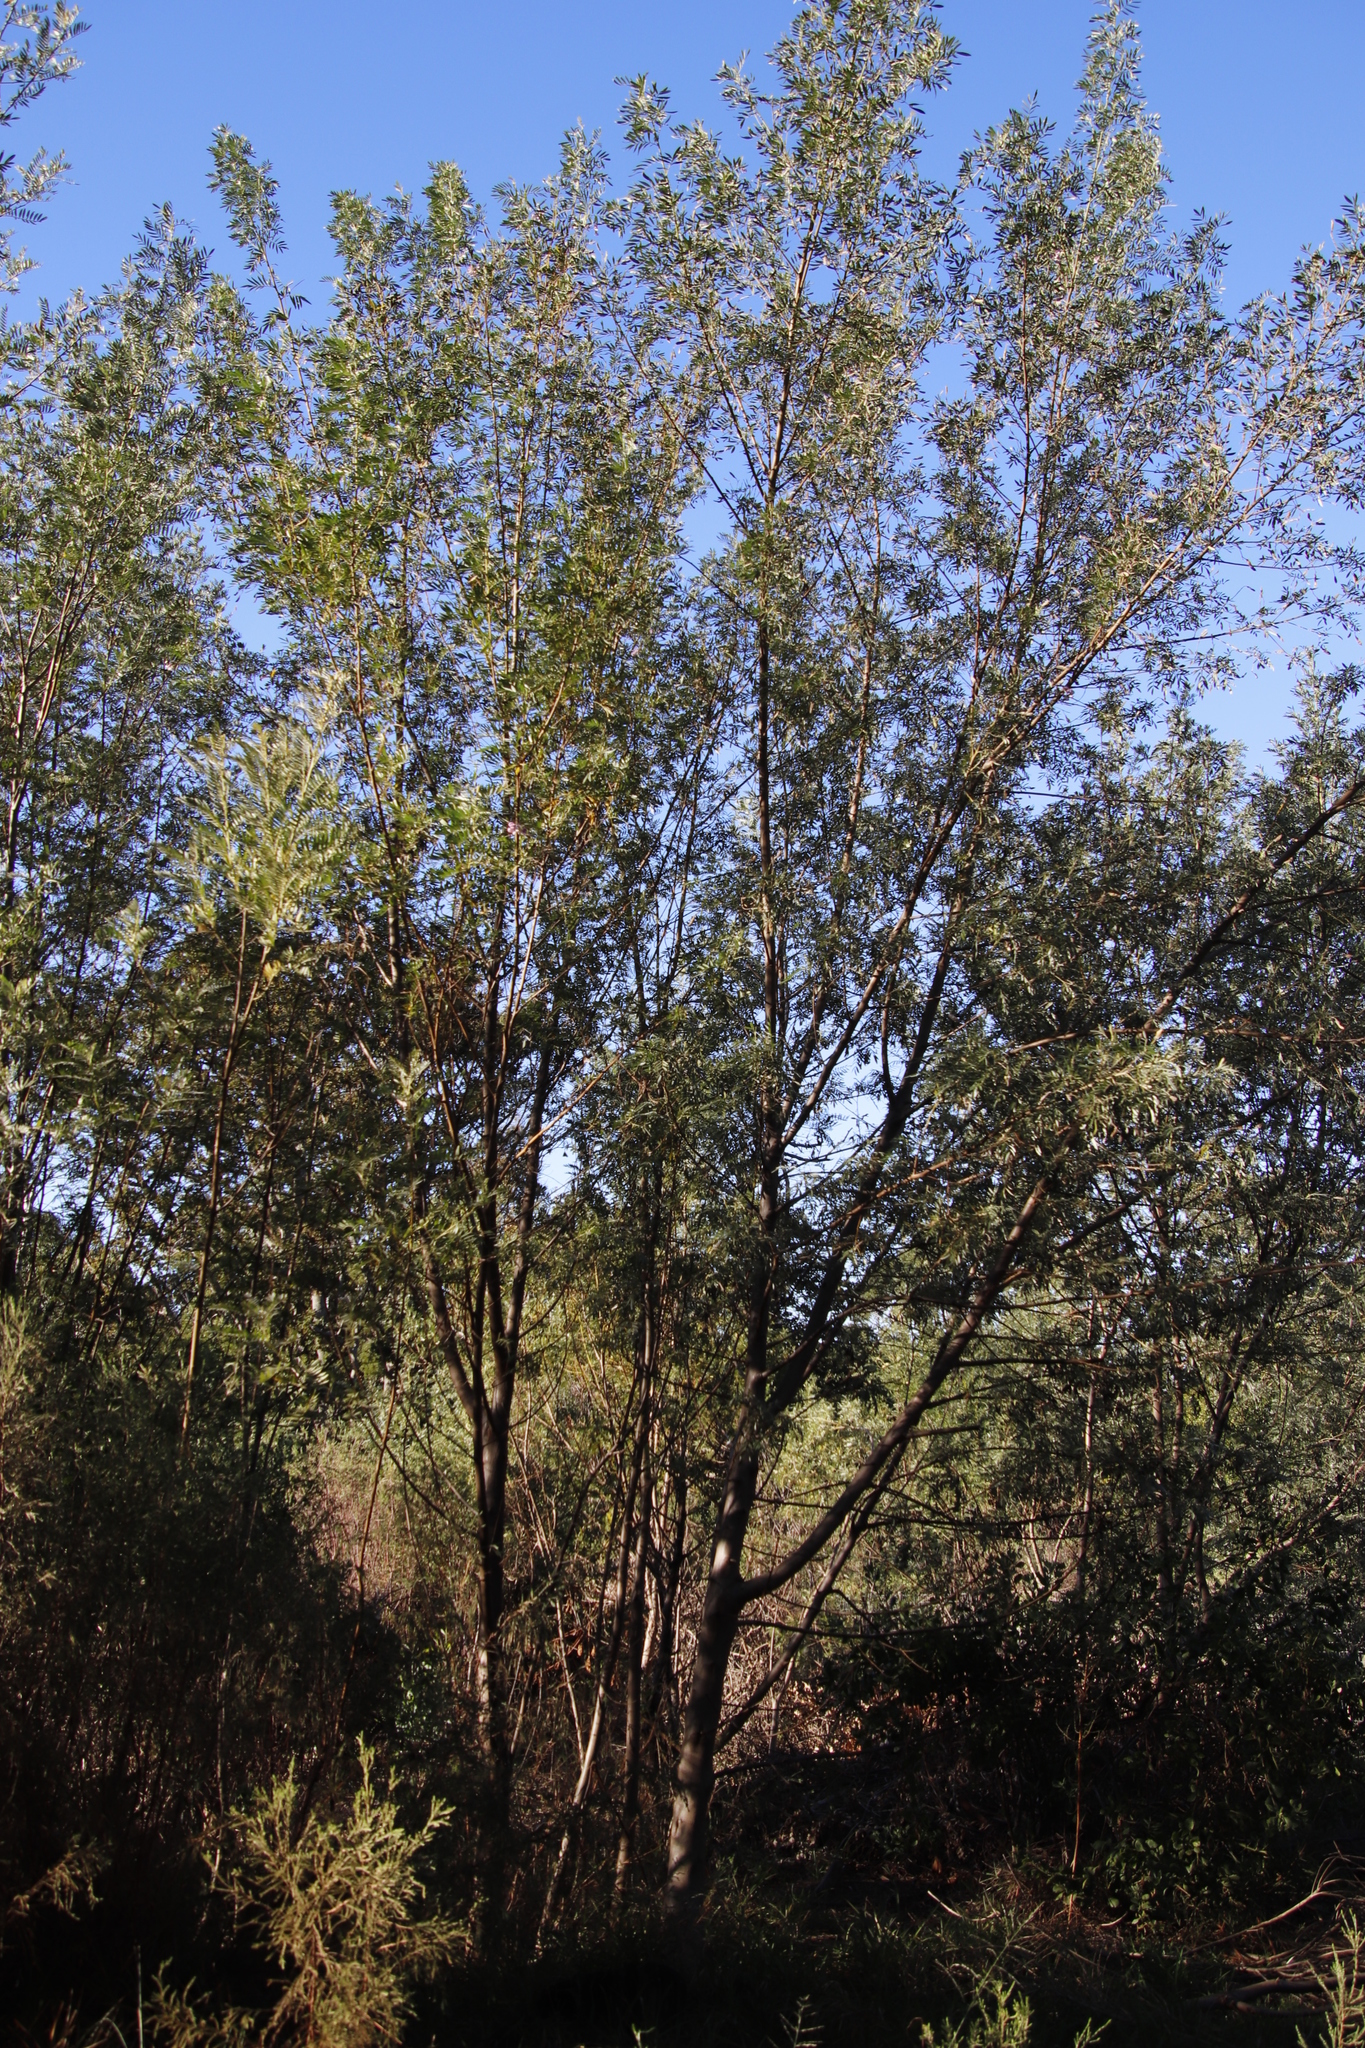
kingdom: Plantae
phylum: Tracheophyta
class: Magnoliopsida
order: Fabales
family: Fabaceae
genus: Virgilia
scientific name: Virgilia oroboides
